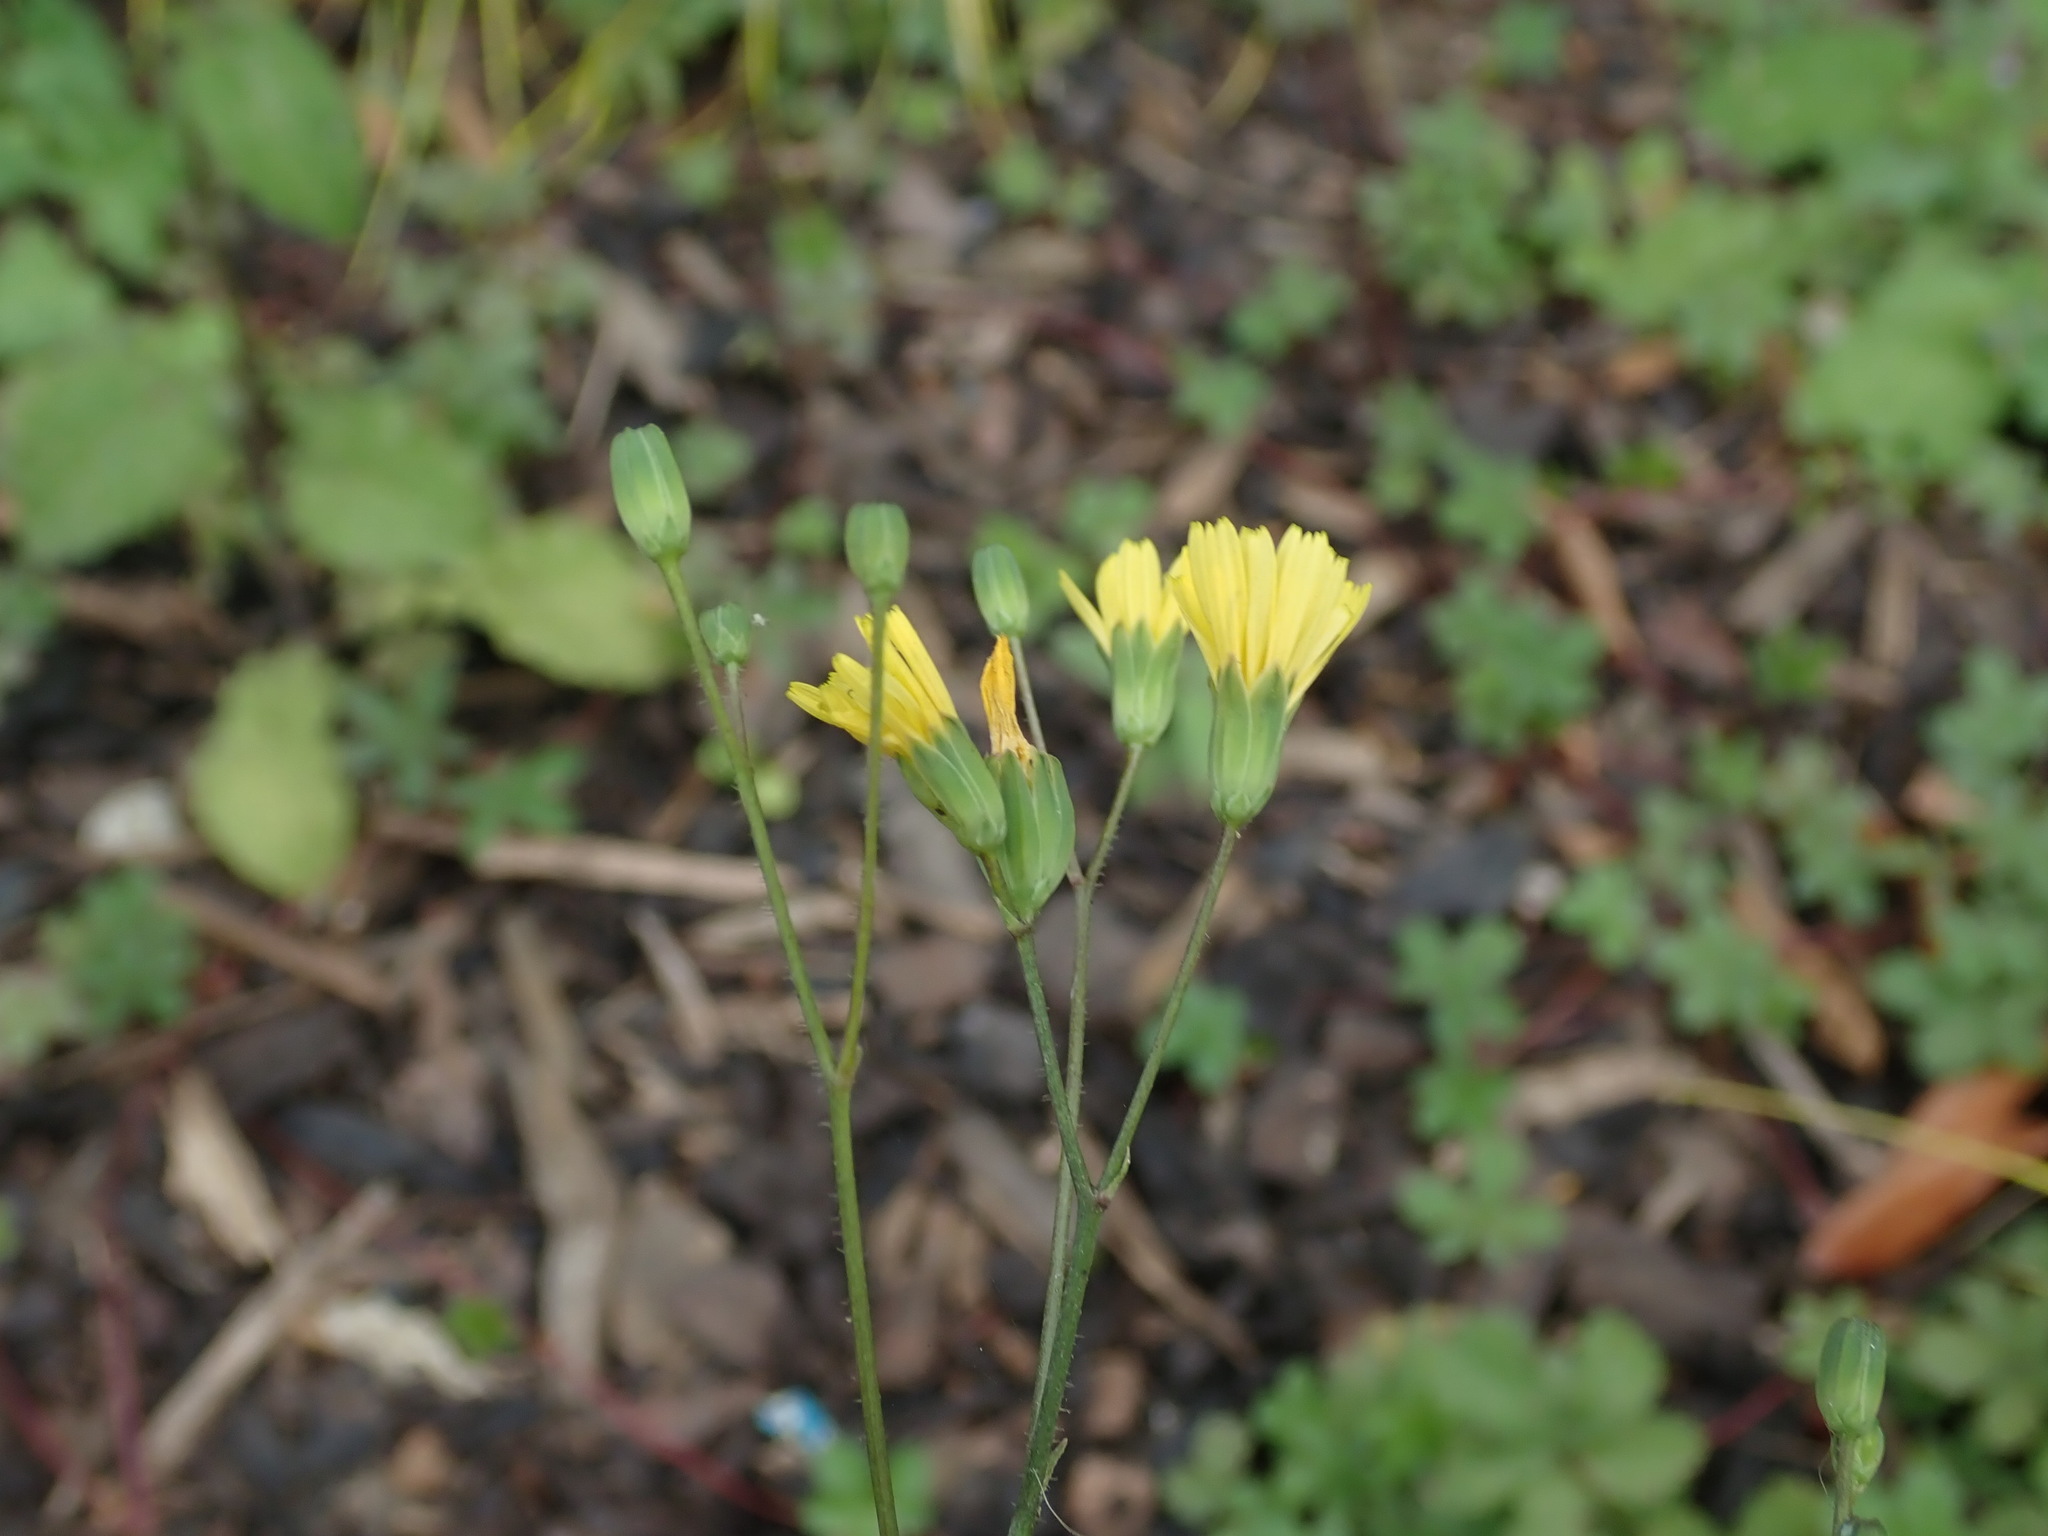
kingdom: Plantae
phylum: Tracheophyta
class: Magnoliopsida
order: Asterales
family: Asteraceae
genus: Lapsana
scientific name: Lapsana communis
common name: Nipplewort
